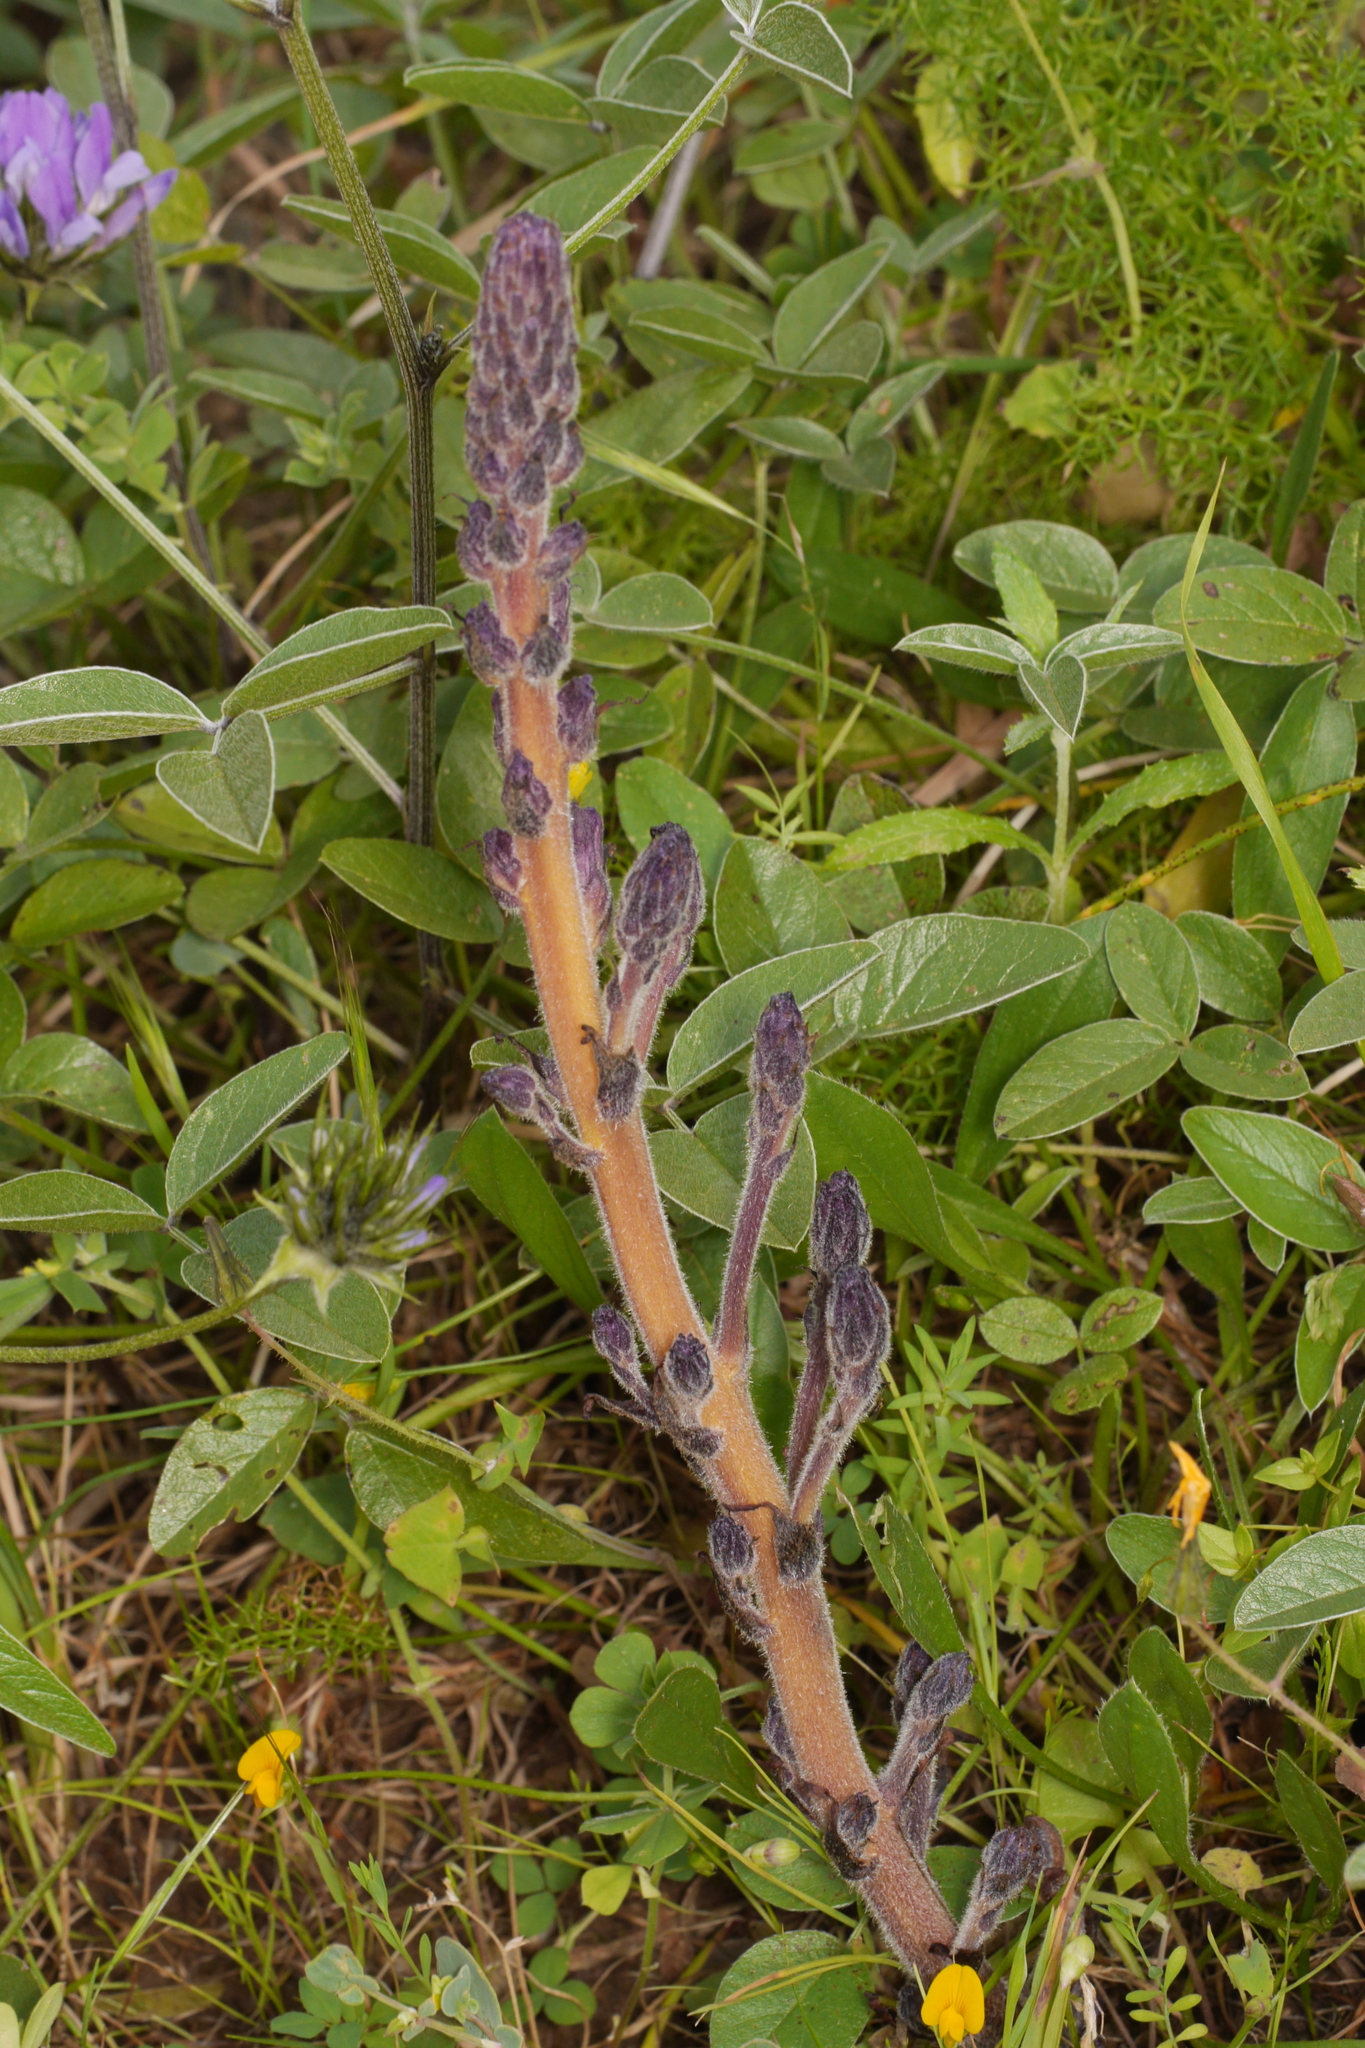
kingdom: Plantae
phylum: Tracheophyta
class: Magnoliopsida
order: Lamiales
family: Orobanchaceae
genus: Phelipanche
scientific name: Phelipanche lavandulacea
